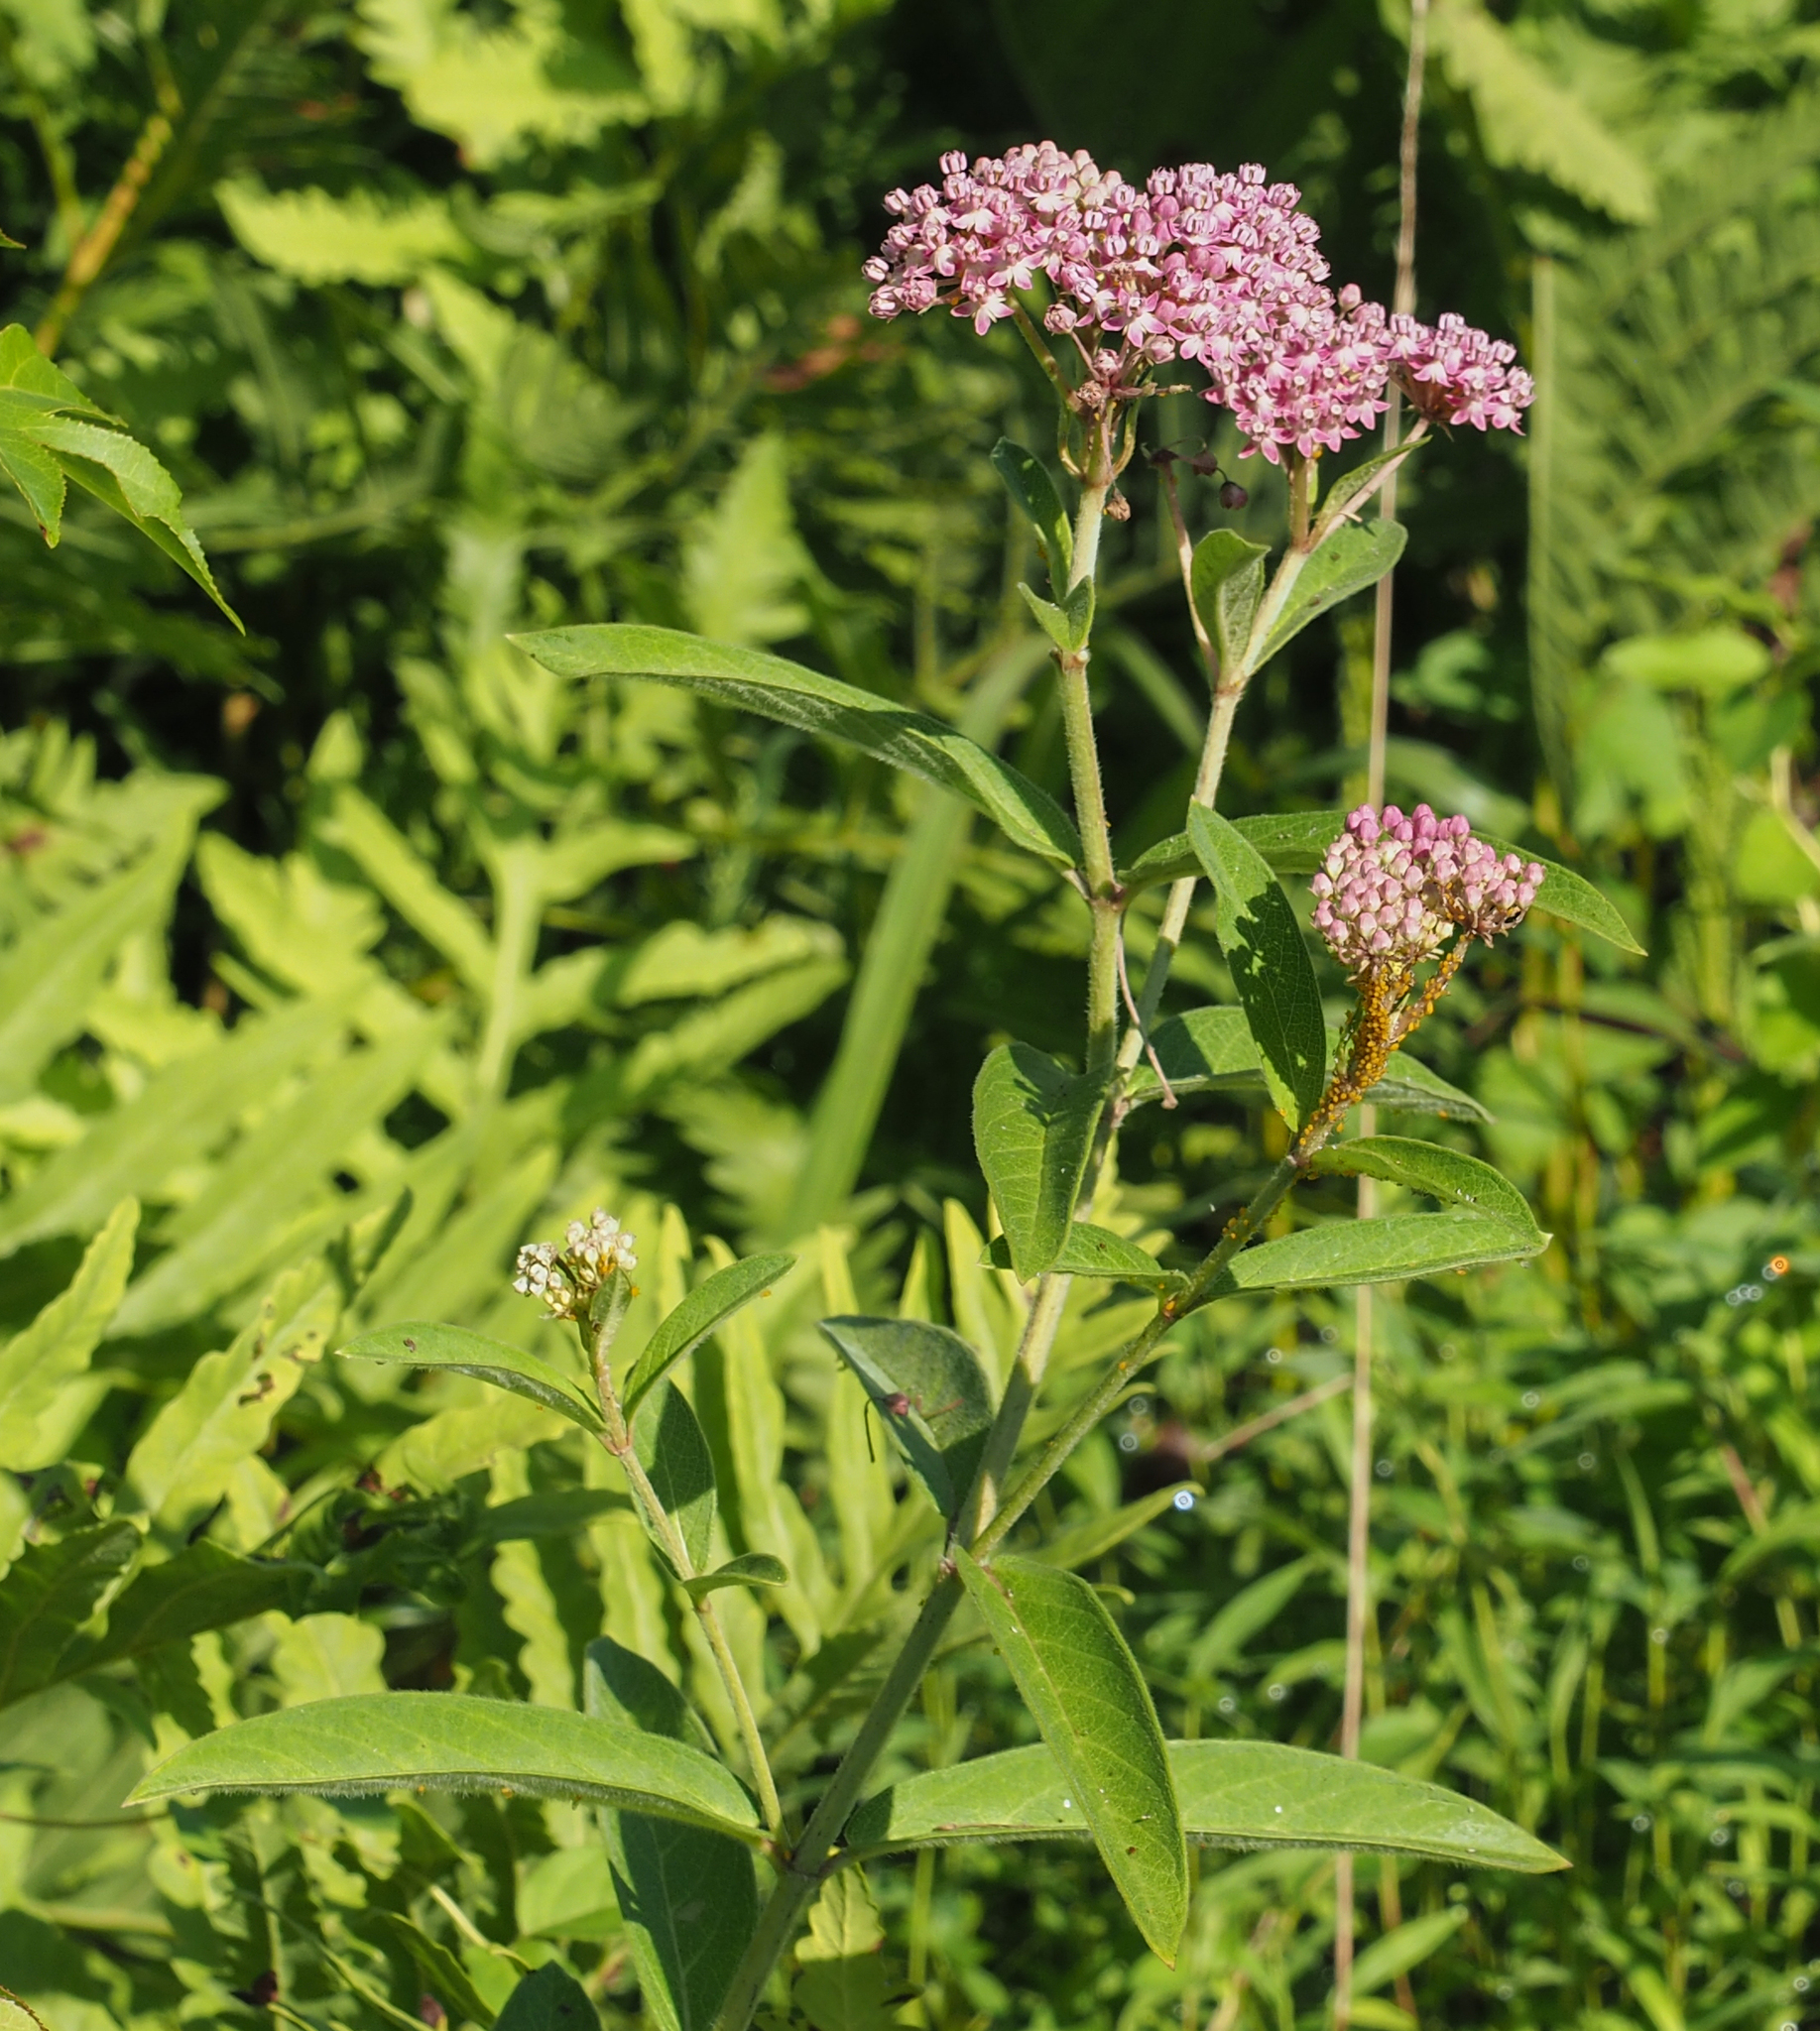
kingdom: Plantae
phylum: Tracheophyta
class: Magnoliopsida
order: Gentianales
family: Apocynaceae
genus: Asclepias
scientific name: Asclepias incarnata
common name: Swamp milkweed
